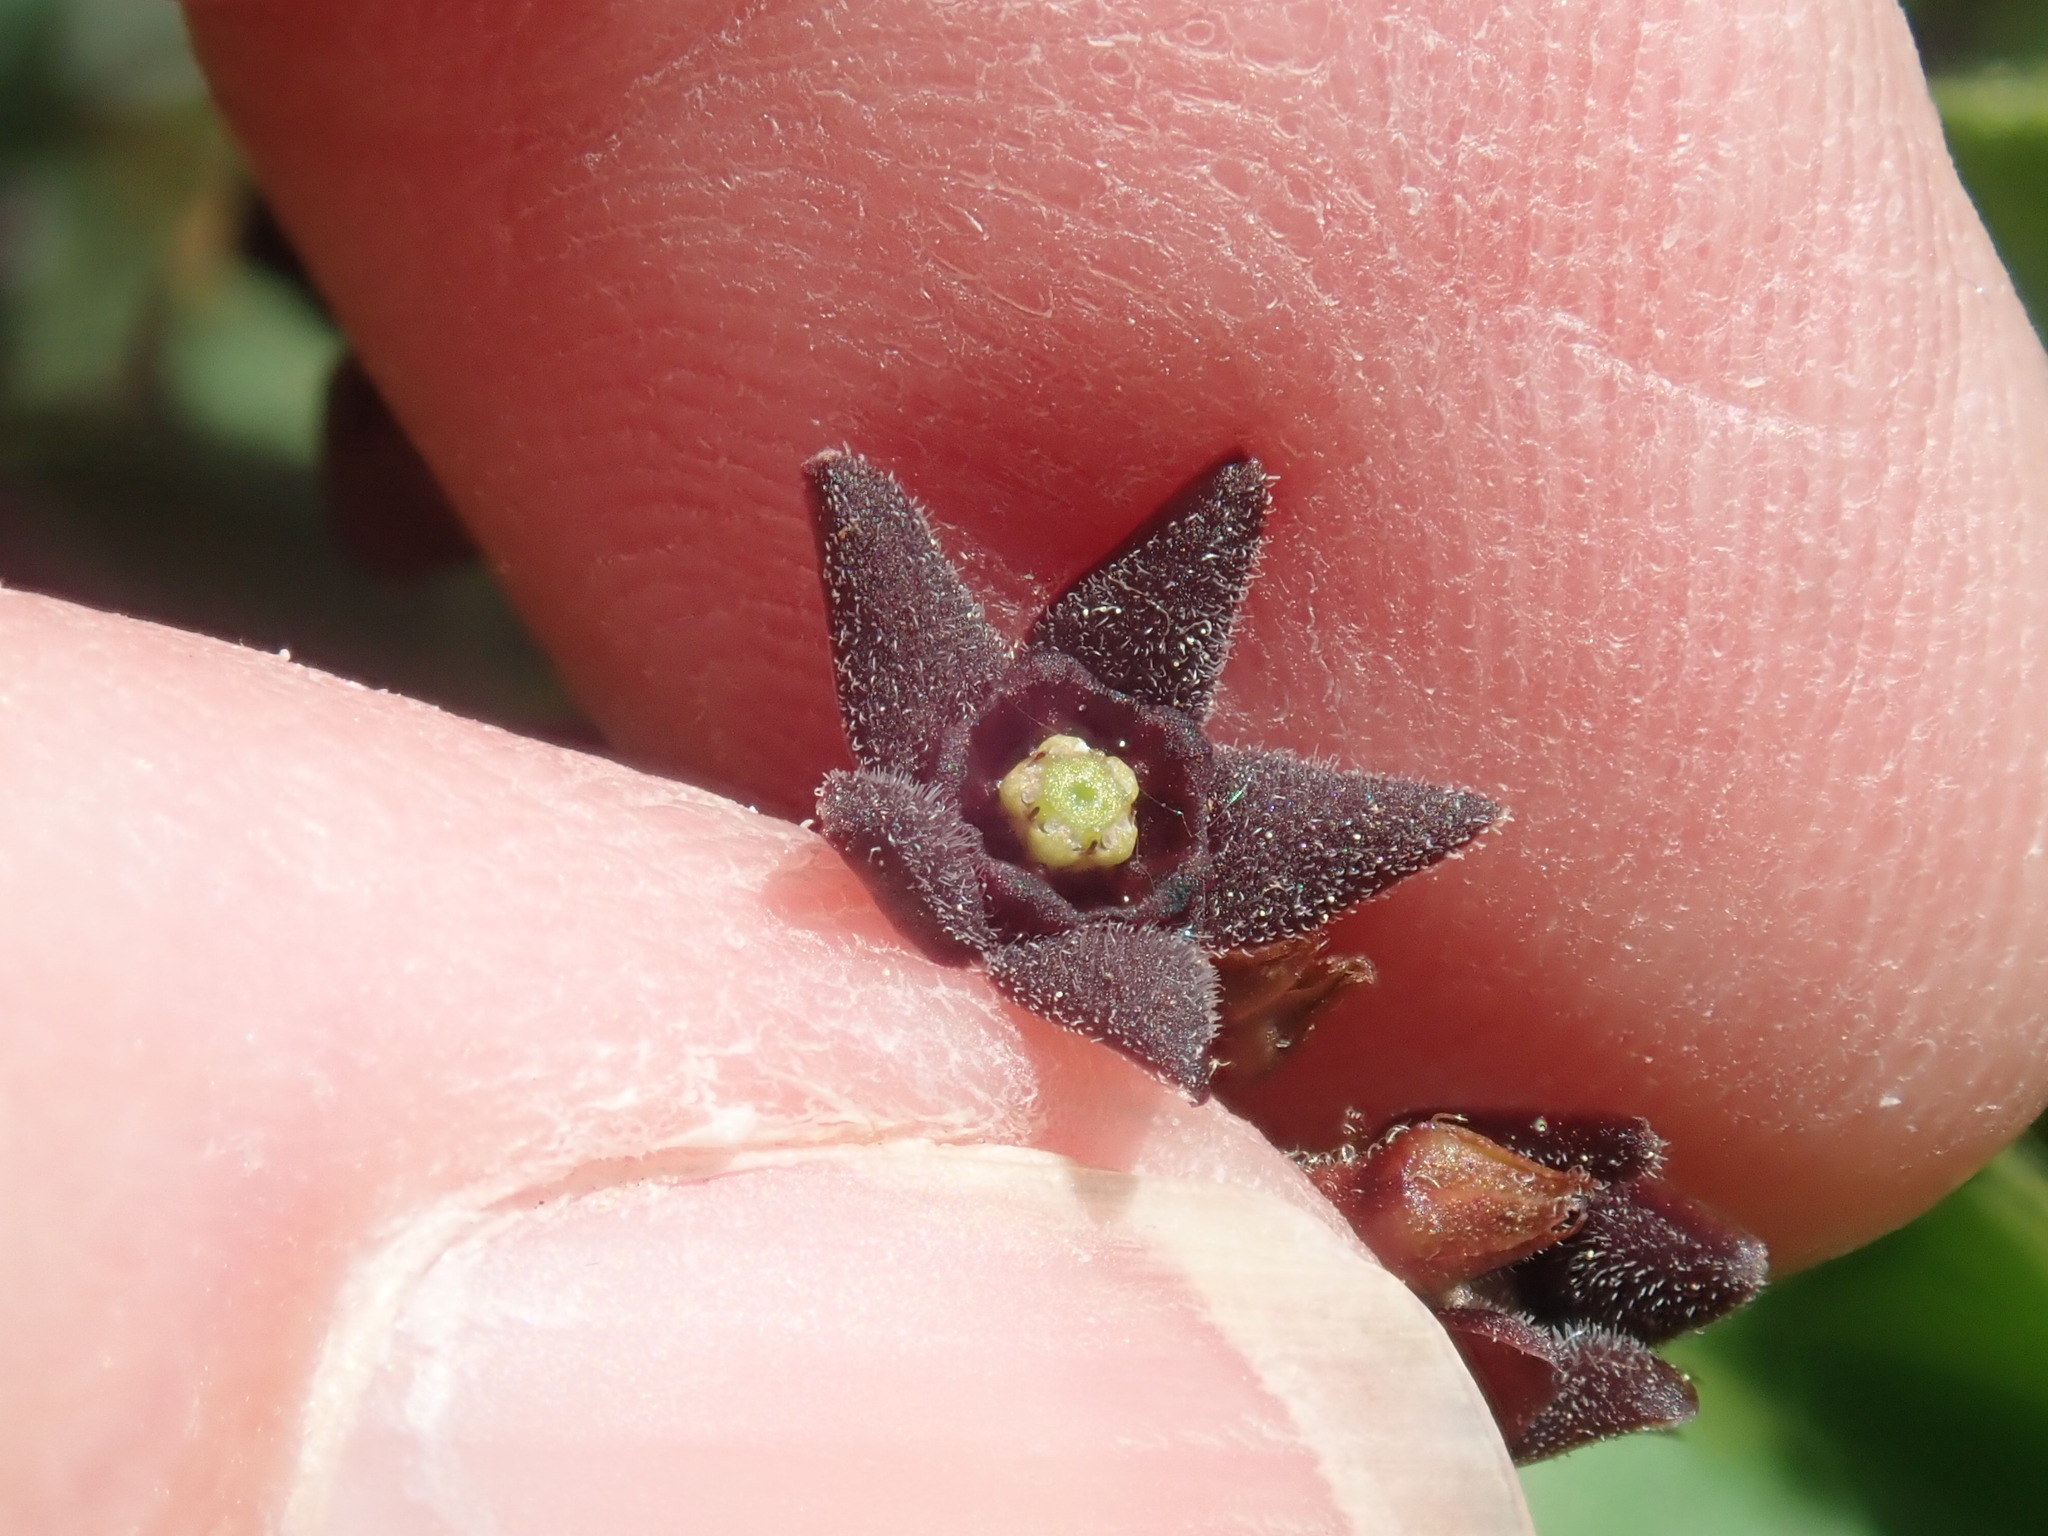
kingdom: Plantae
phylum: Tracheophyta
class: Magnoliopsida
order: Gentianales
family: Apocynaceae
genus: Vincetoxicum
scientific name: Vincetoxicum nigrum
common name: Black swallow-wort
